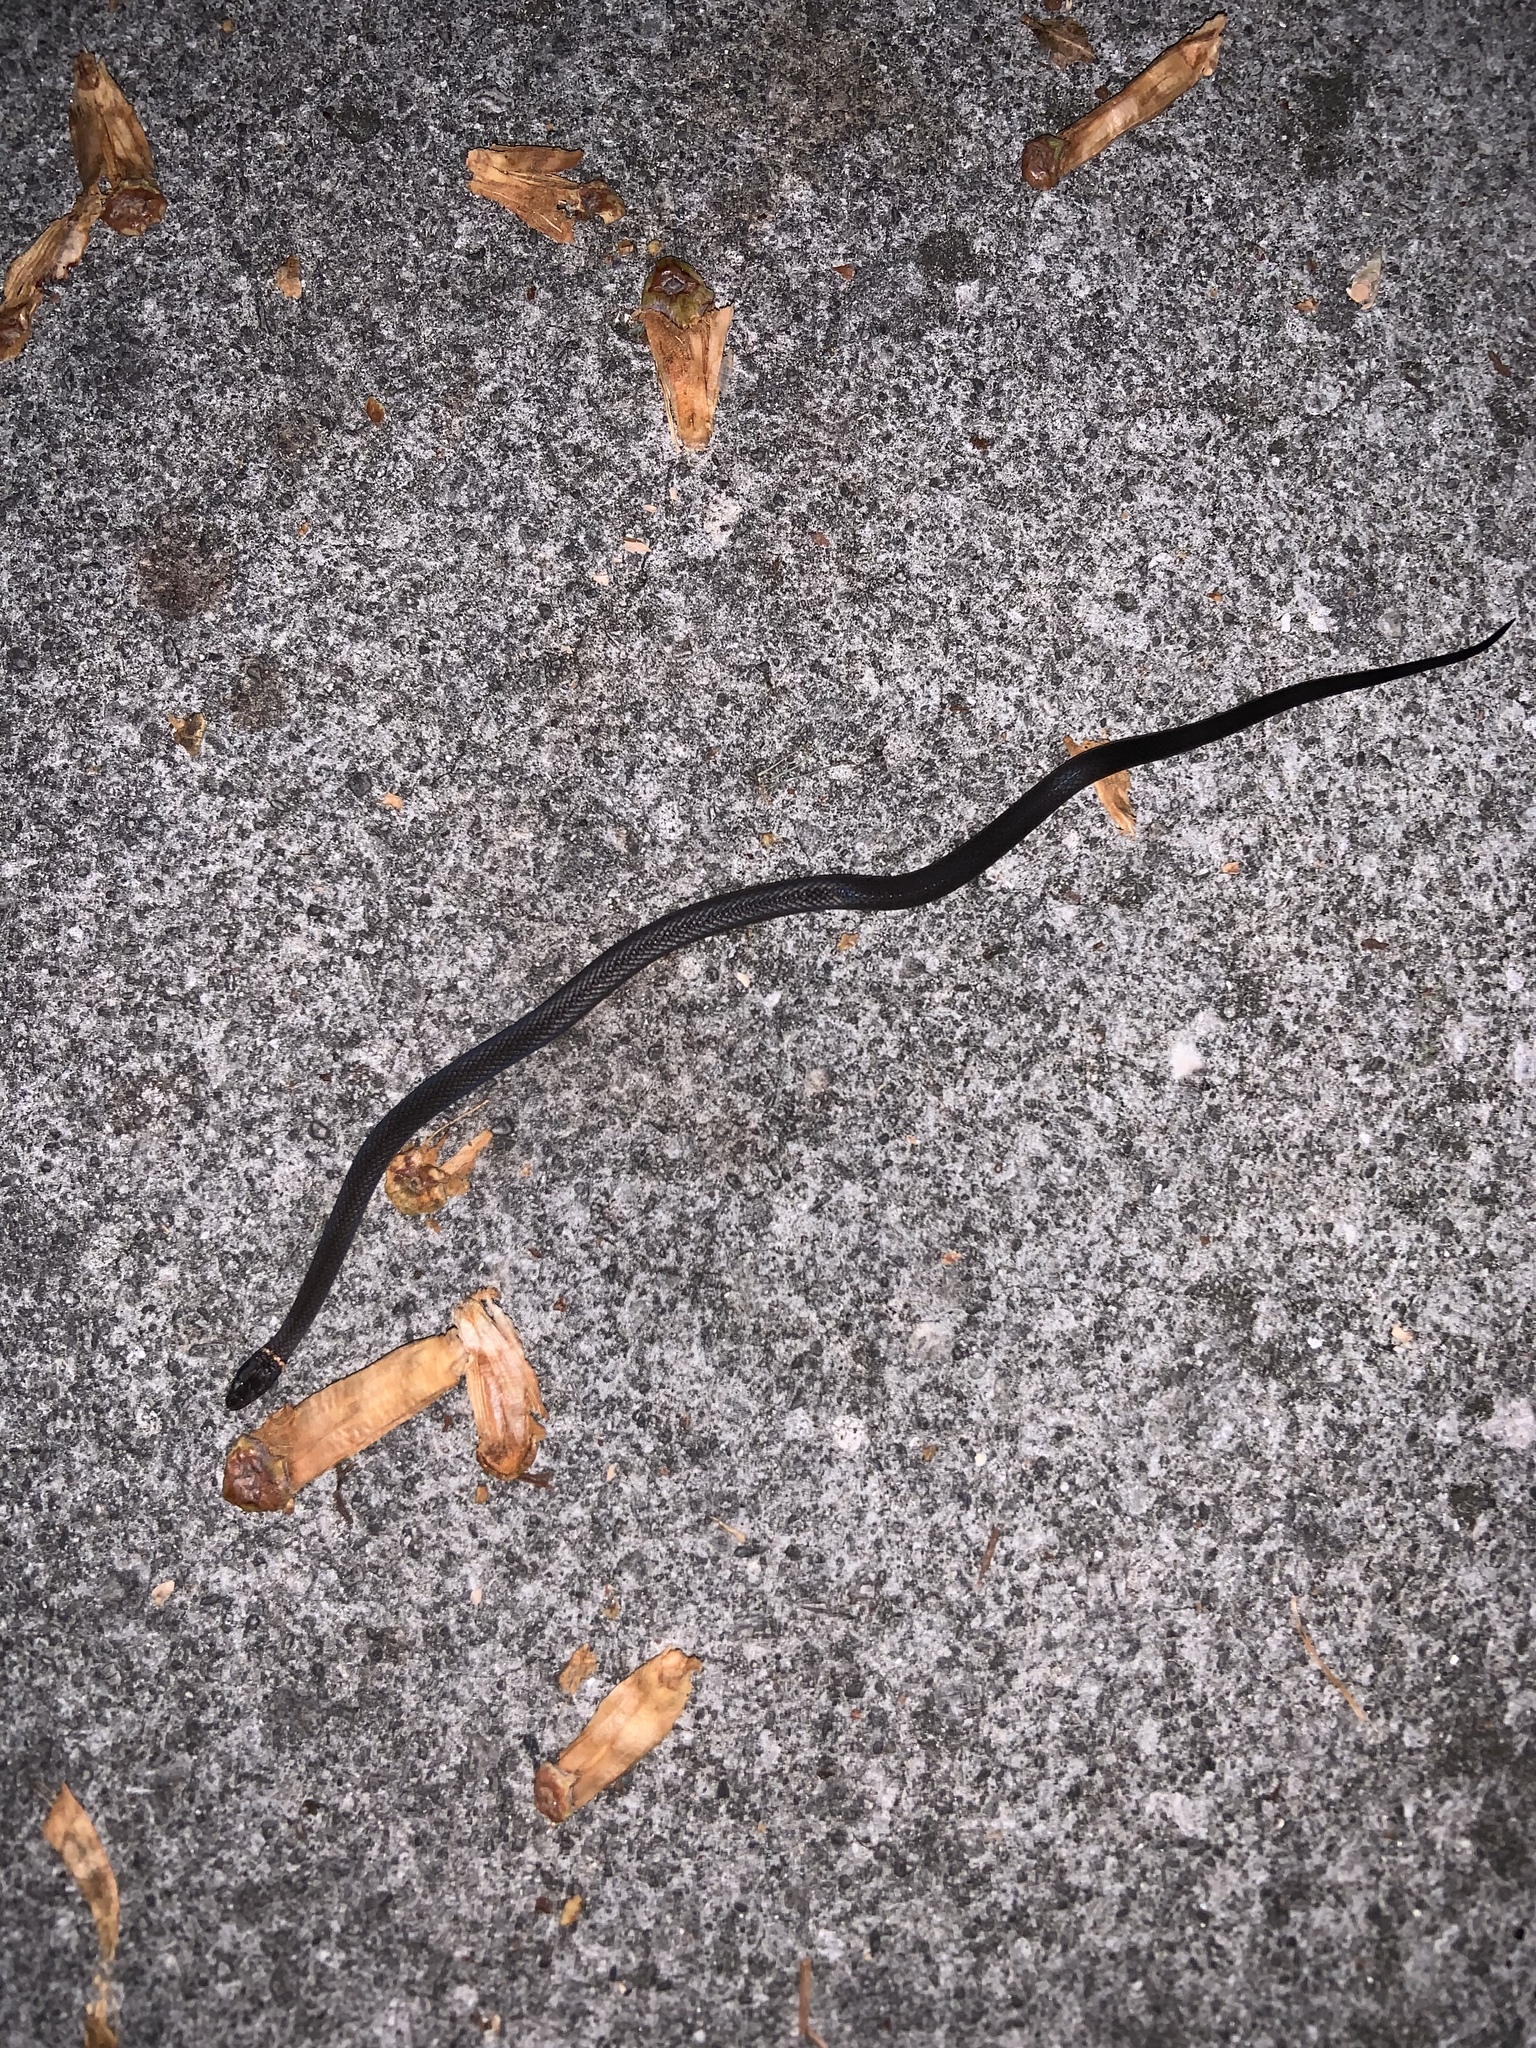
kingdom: Animalia
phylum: Chordata
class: Squamata
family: Colubridae
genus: Diadophis
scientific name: Diadophis punctatus
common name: Ringneck snake
